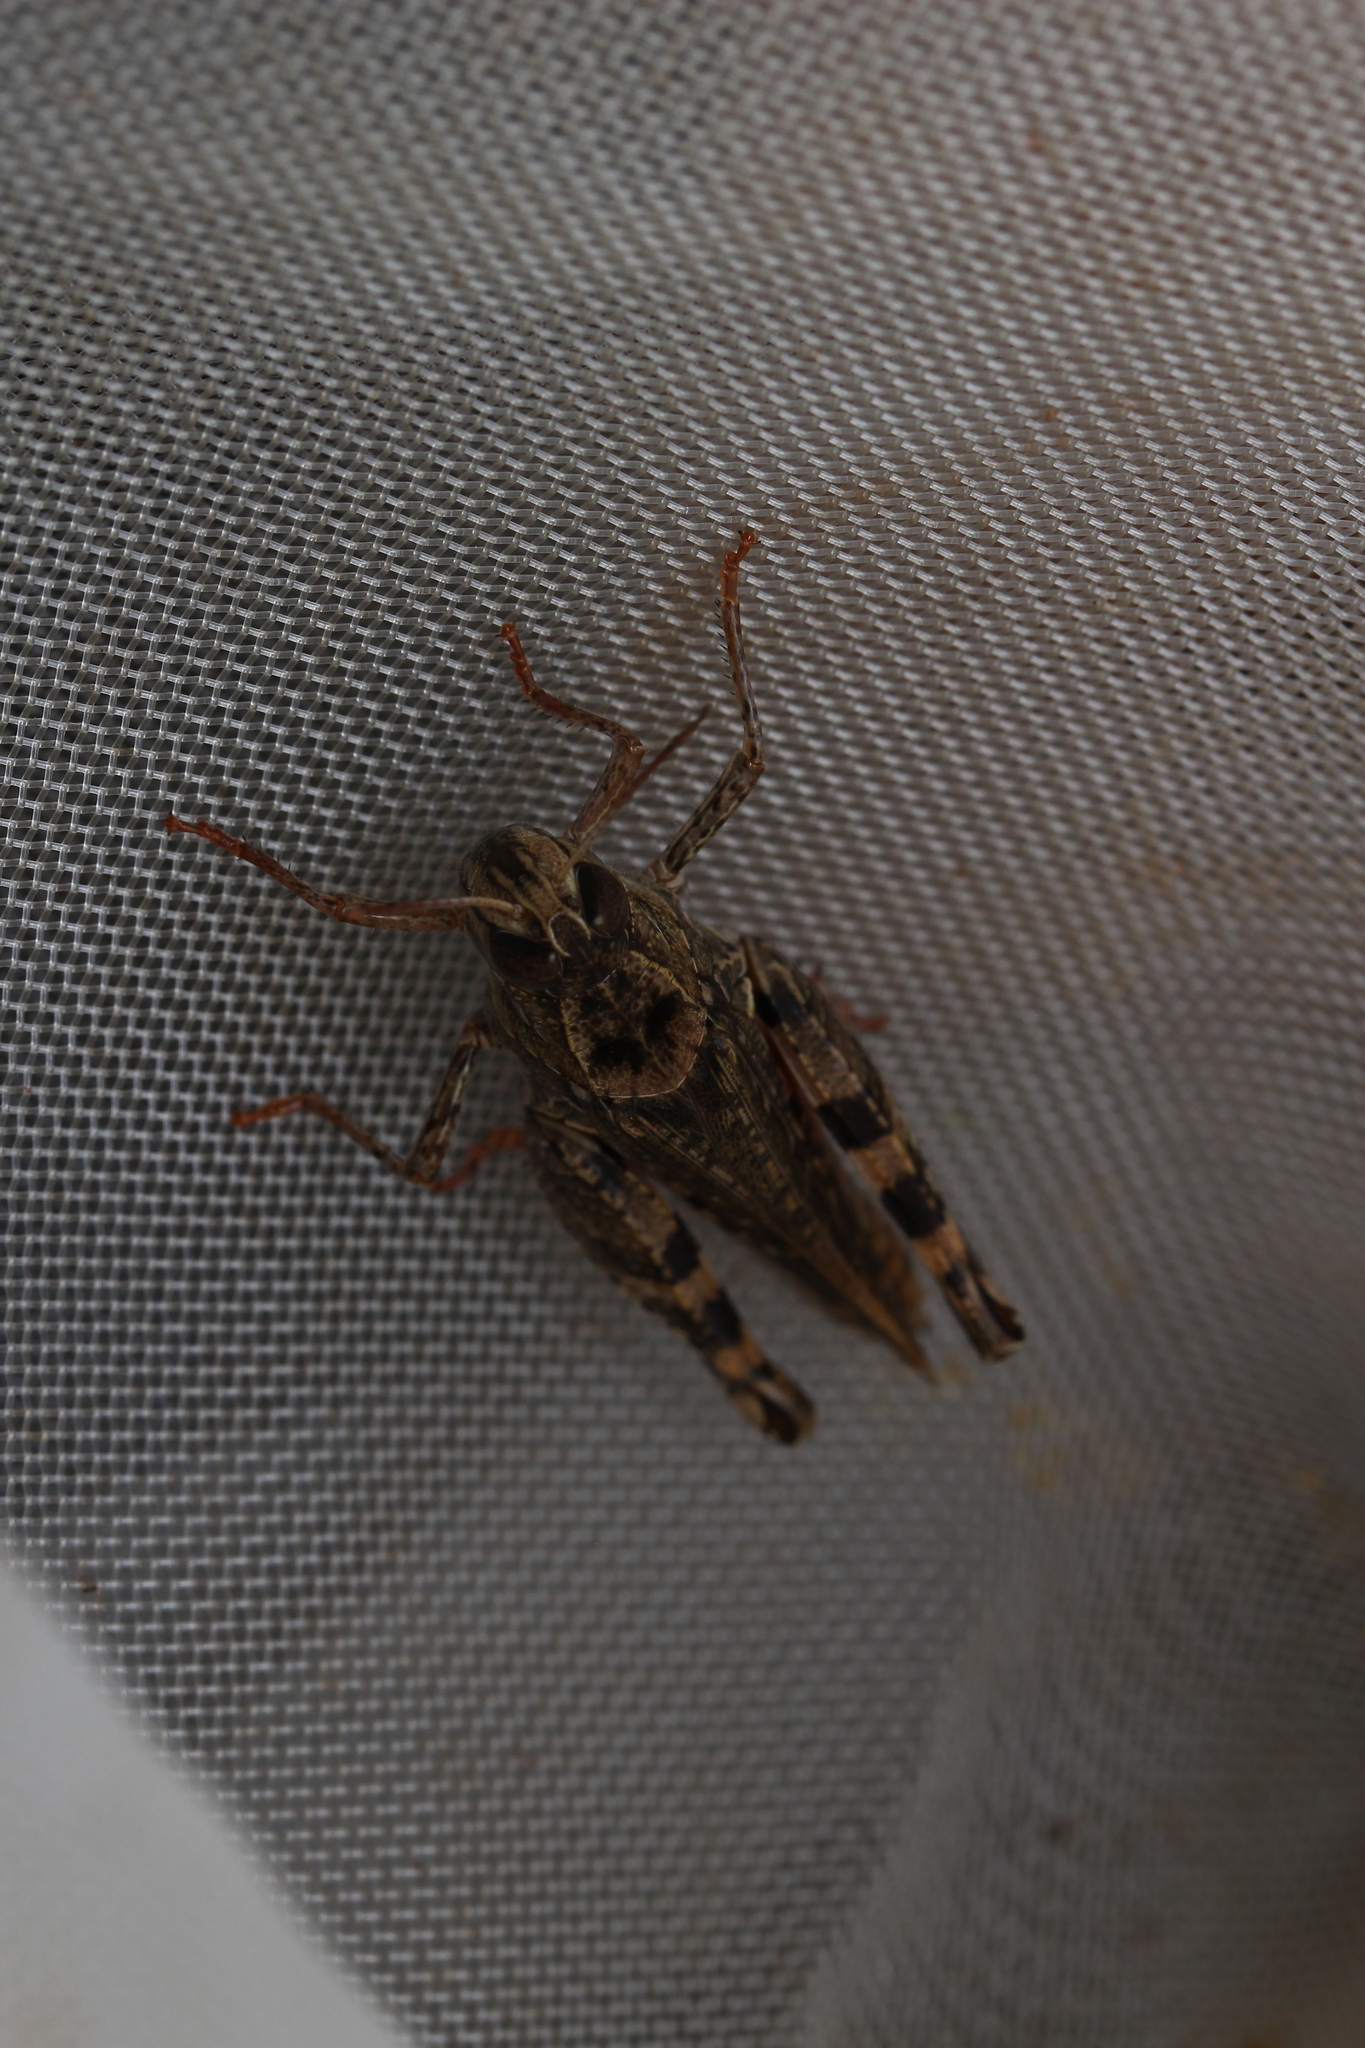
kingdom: Animalia
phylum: Arthropoda
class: Insecta
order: Orthoptera
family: Acrididae
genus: Calliptamus
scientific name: Calliptamus italicus
